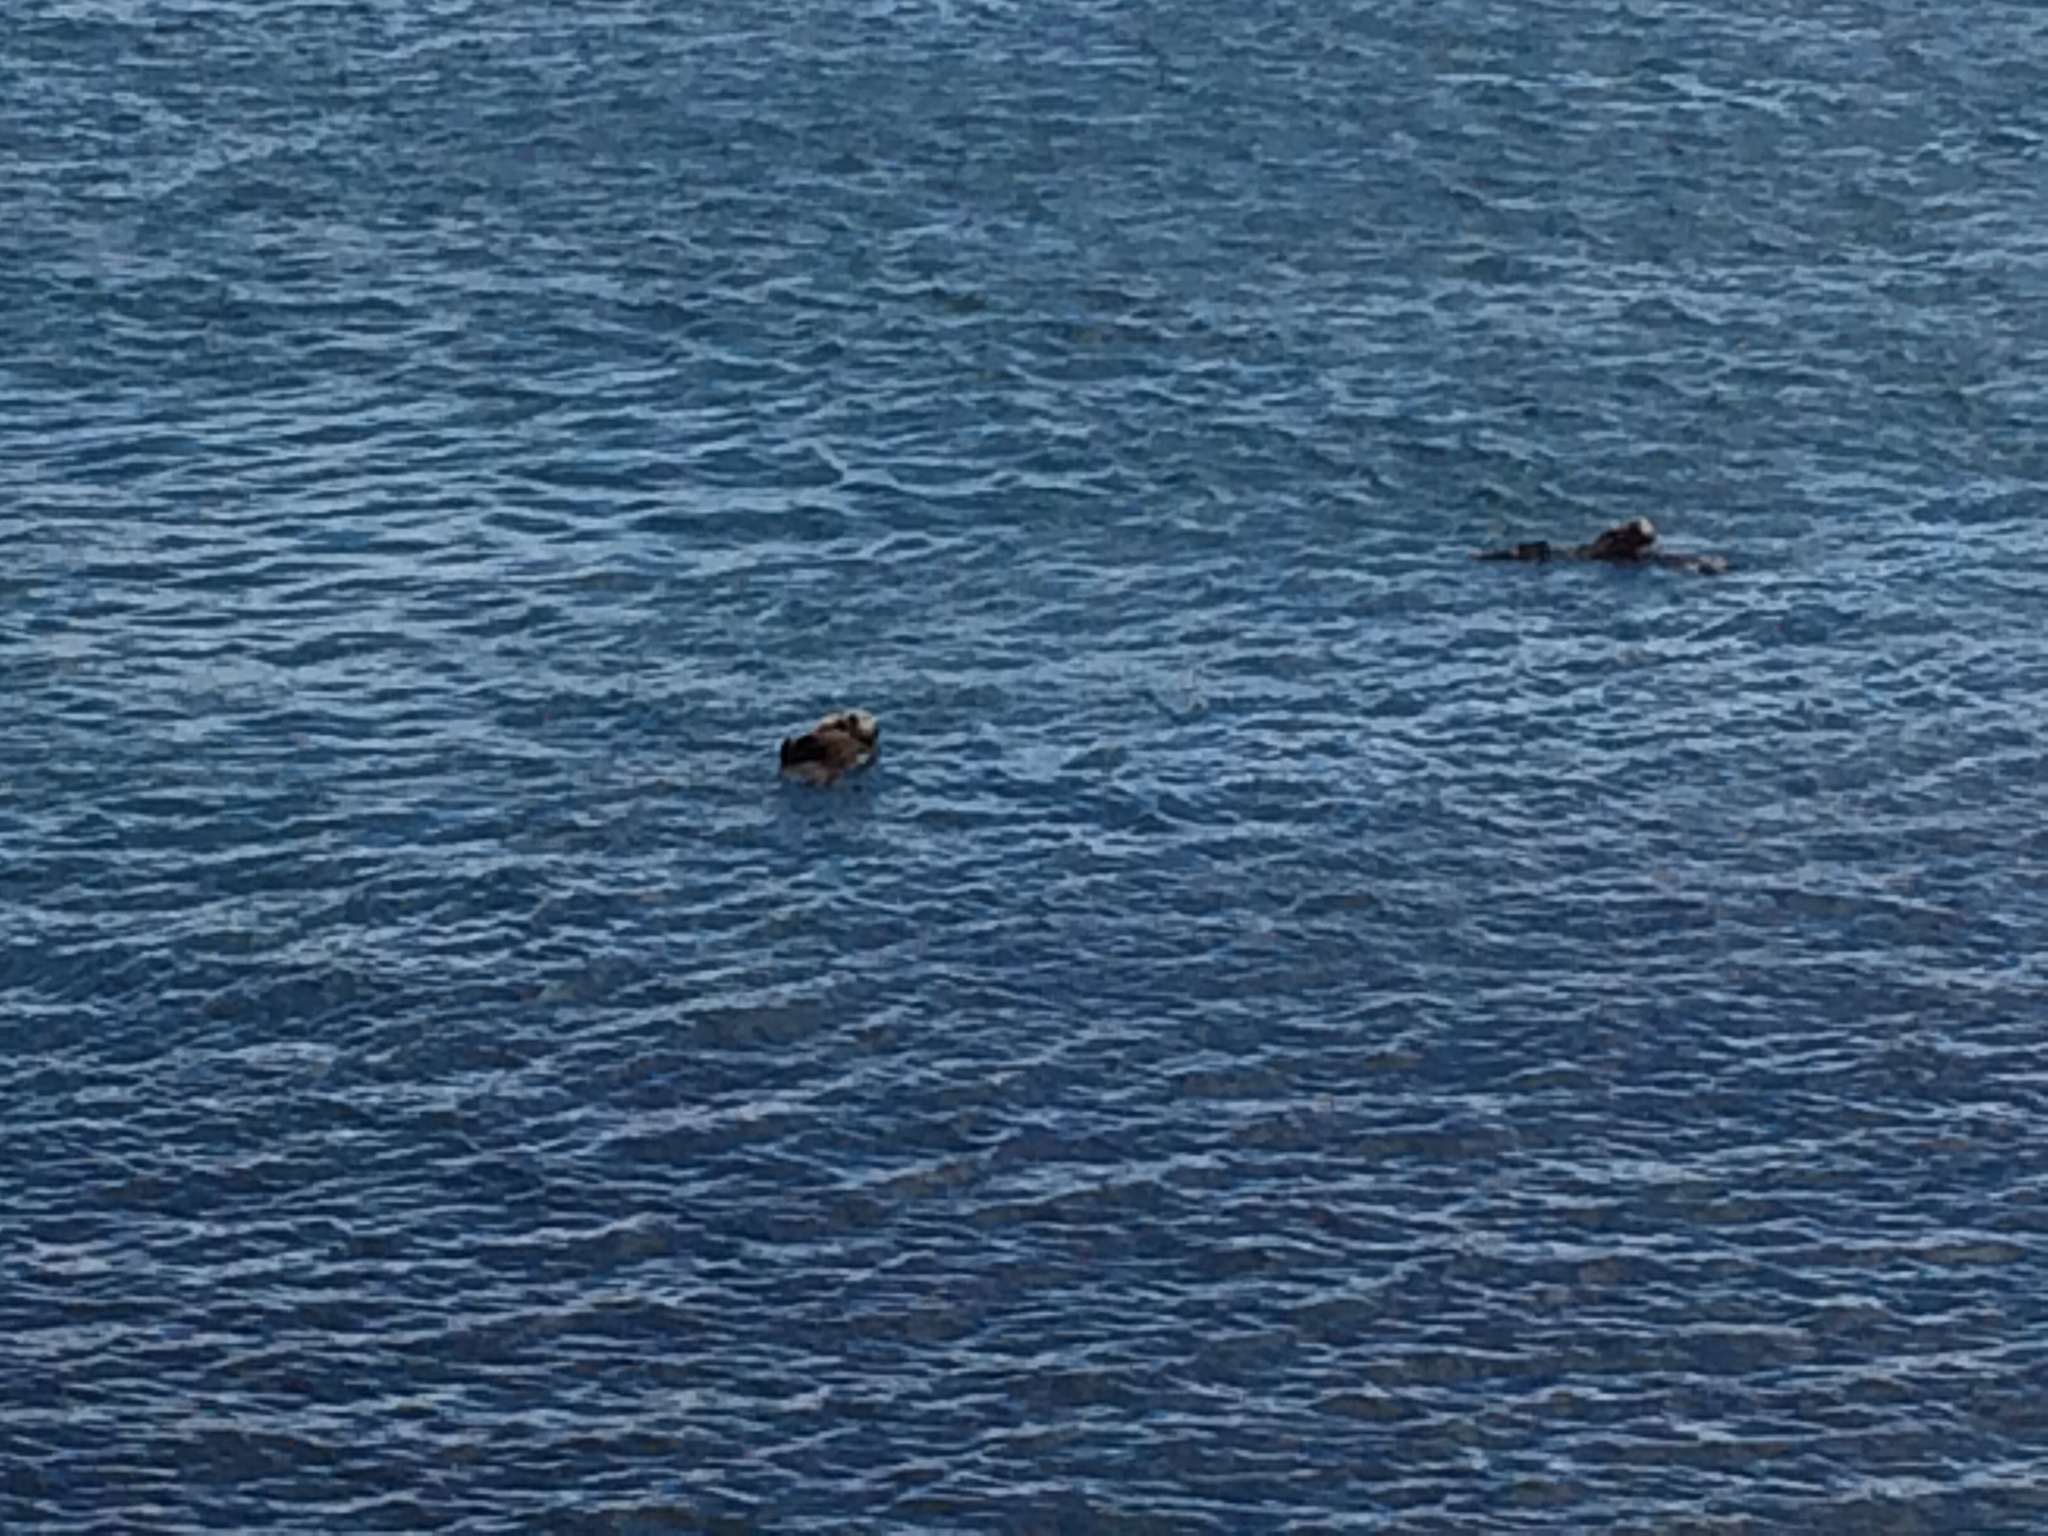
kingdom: Animalia
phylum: Chordata
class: Mammalia
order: Carnivora
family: Mustelidae
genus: Enhydra
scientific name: Enhydra lutris
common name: Sea otter
